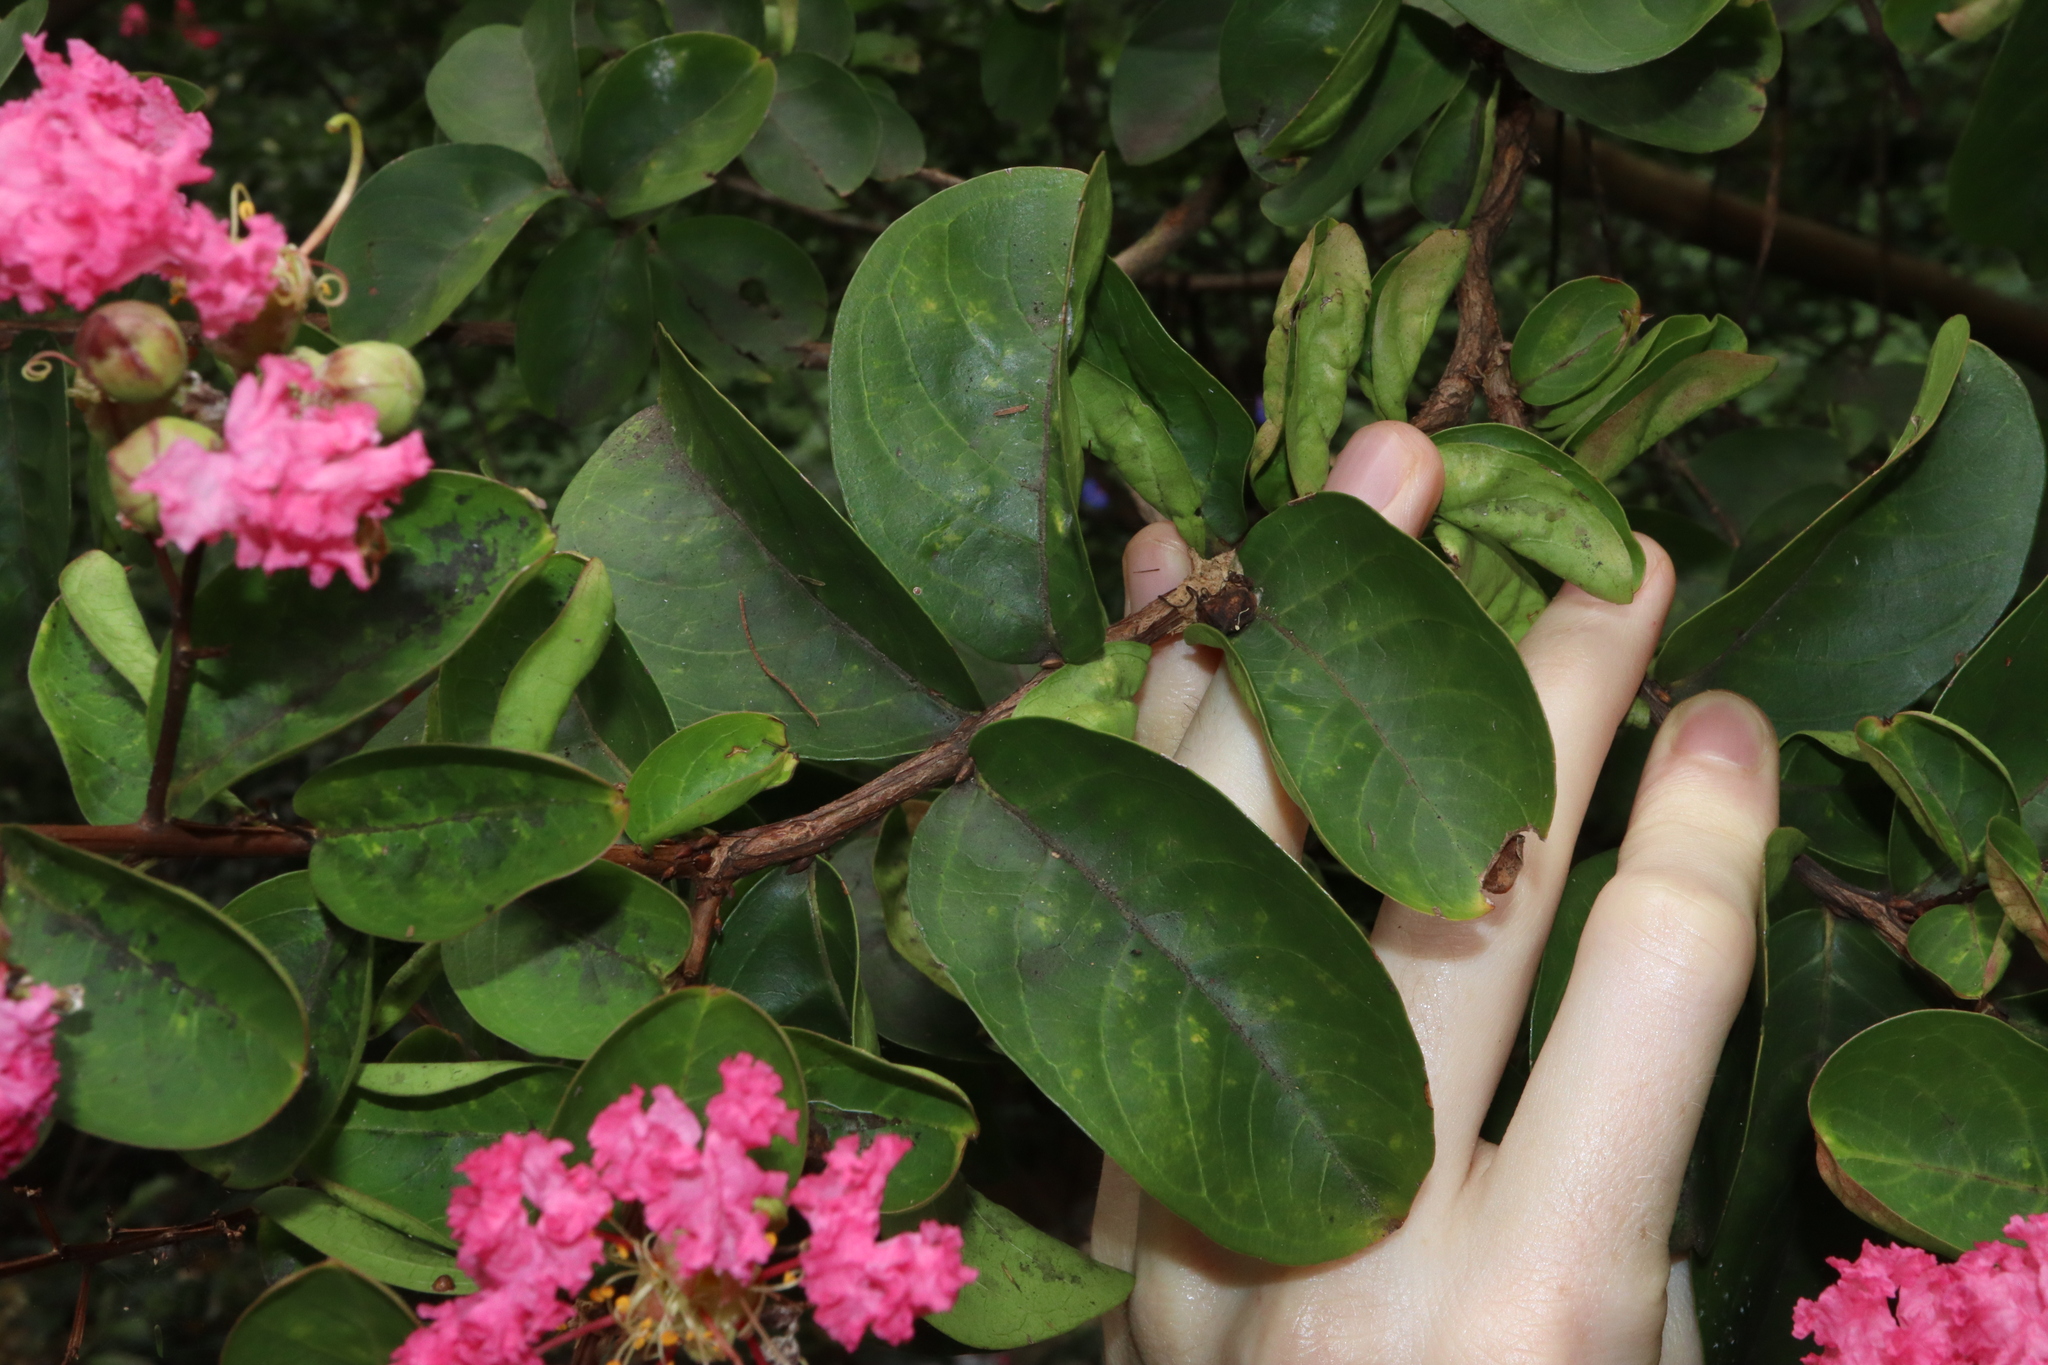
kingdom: Plantae
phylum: Tracheophyta
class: Magnoliopsida
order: Myrtales
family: Lythraceae
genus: Lagerstroemia
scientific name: Lagerstroemia indica
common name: Crape-myrtle
